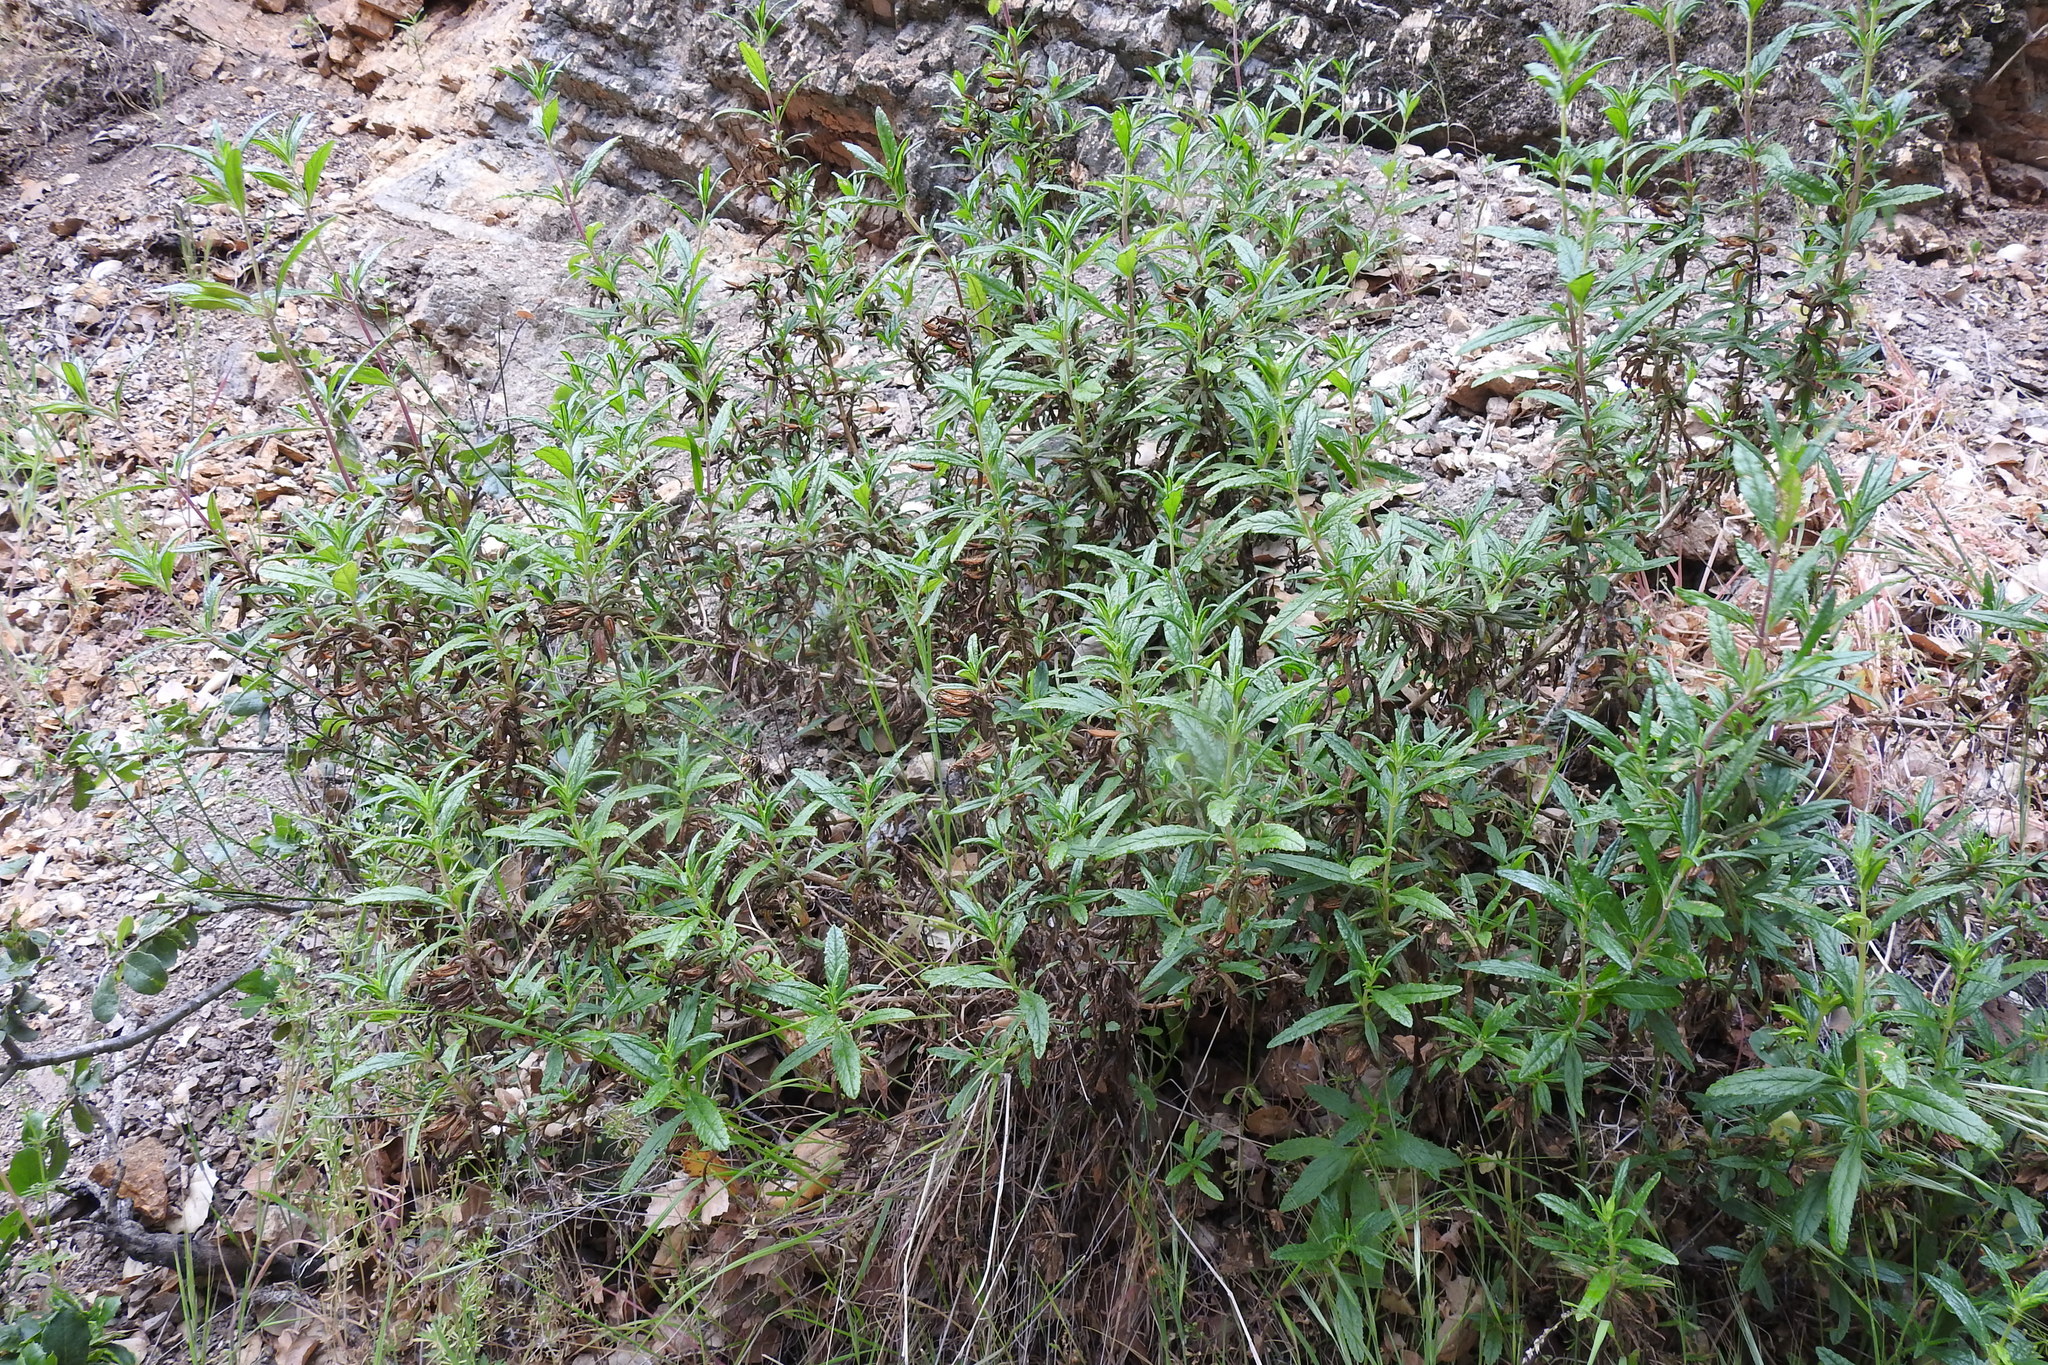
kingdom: Plantae
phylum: Tracheophyta
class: Magnoliopsida
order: Lamiales
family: Phrymaceae
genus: Diplacus
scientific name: Diplacus aurantiacus
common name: Bush monkey-flower
